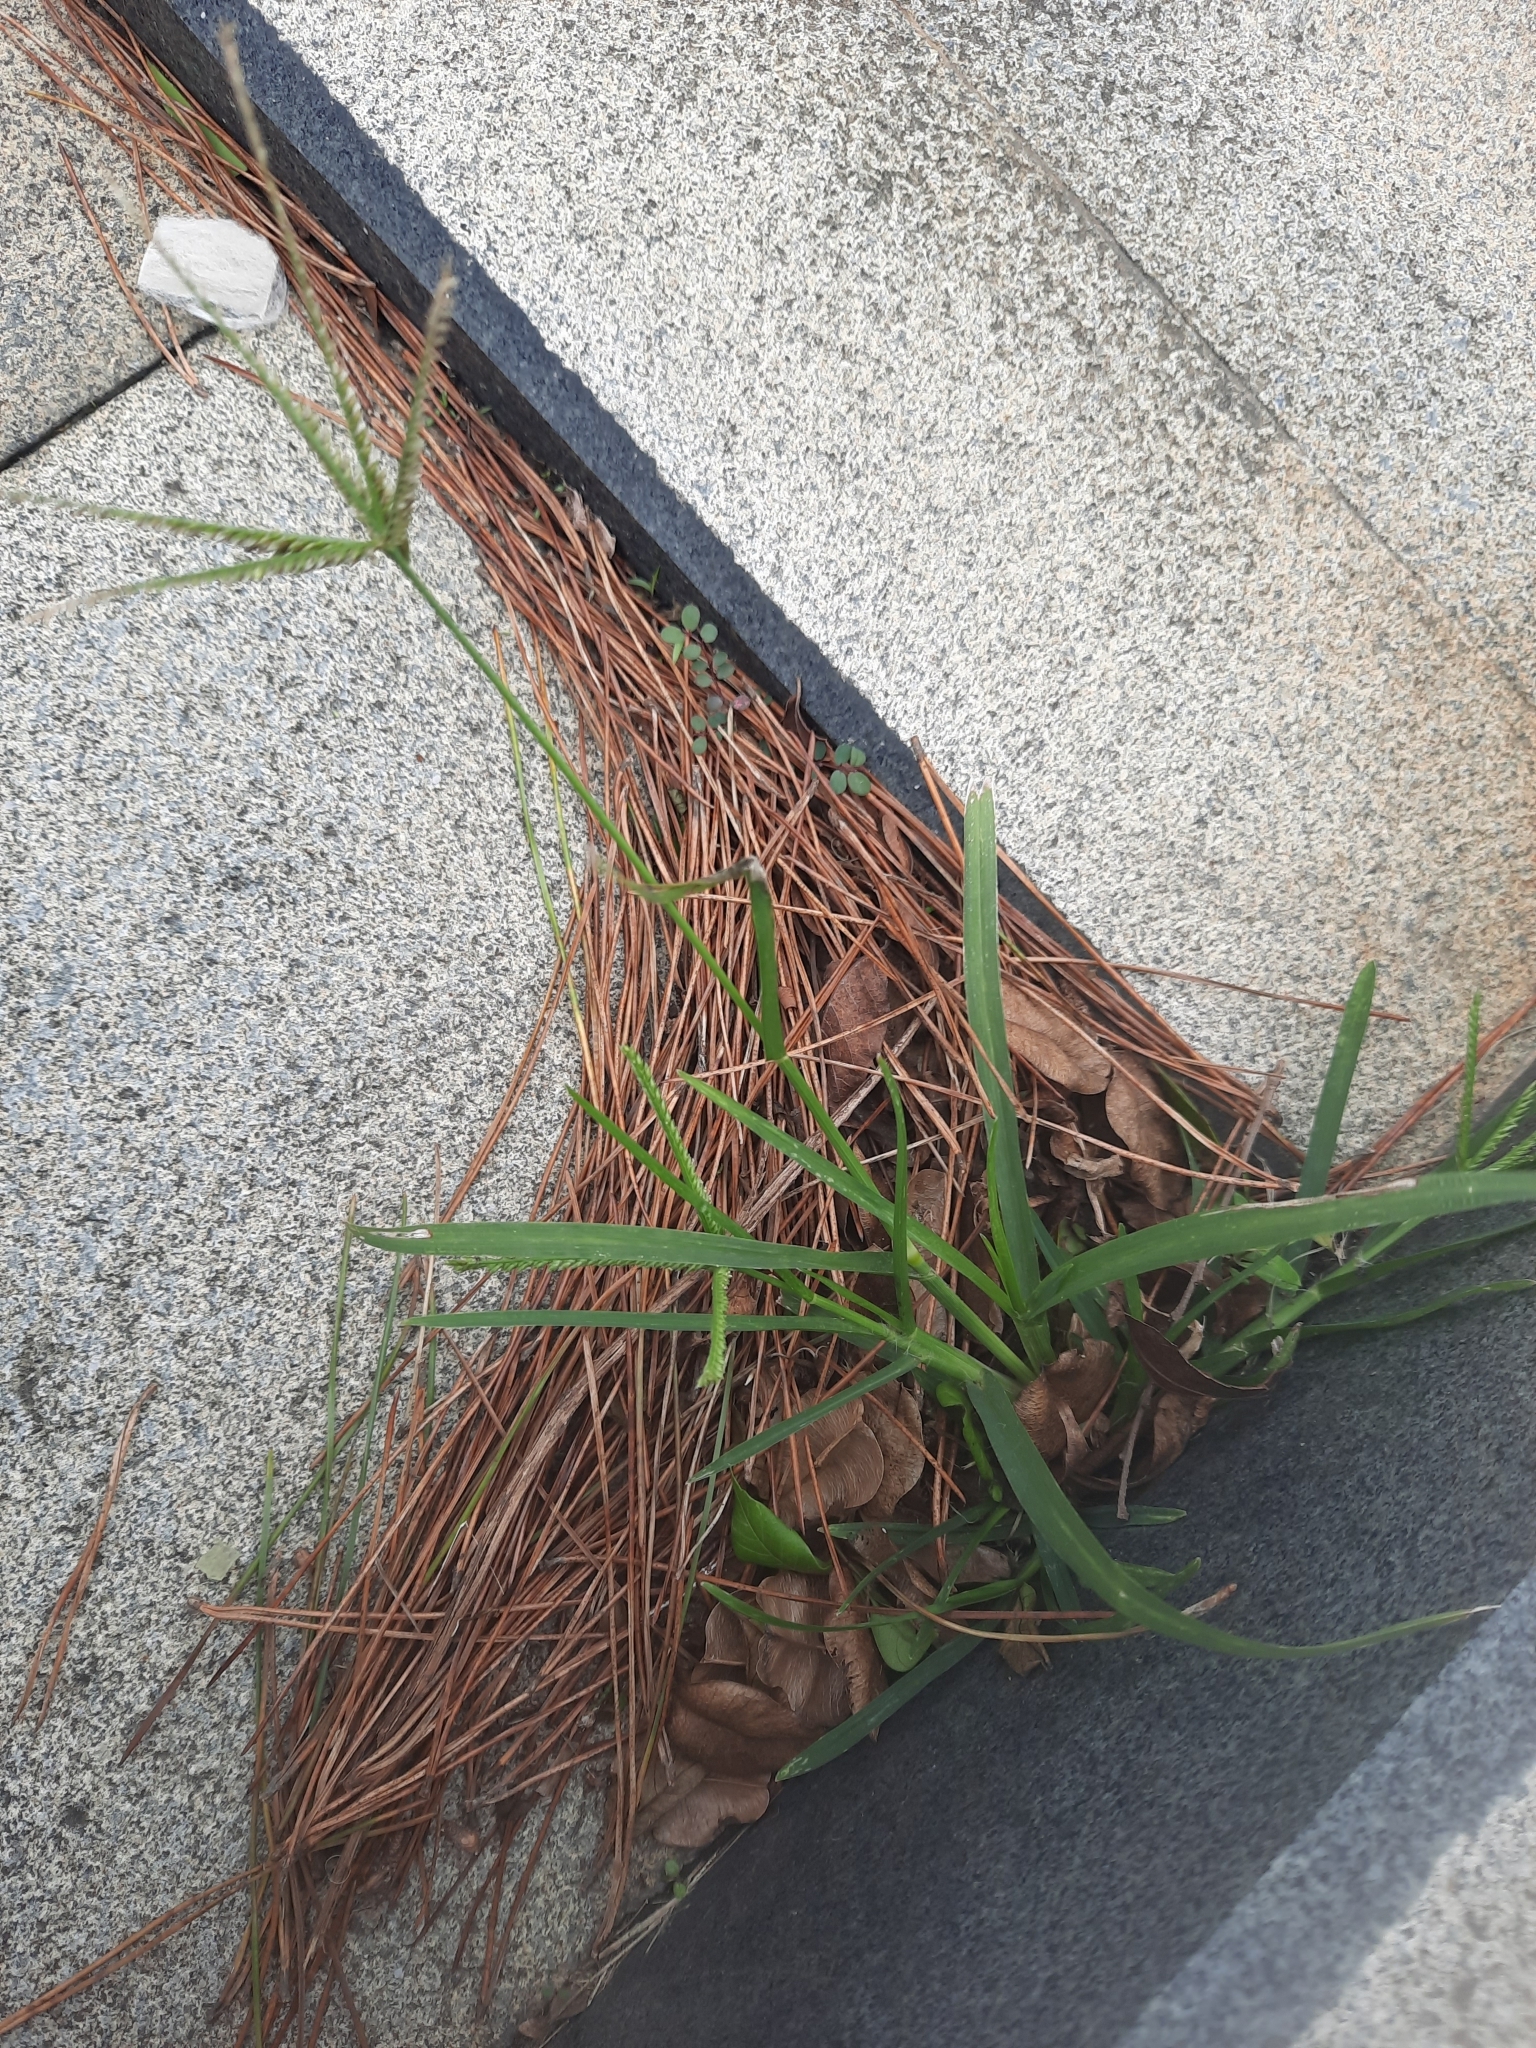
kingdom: Plantae
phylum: Tracheophyta
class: Liliopsida
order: Poales
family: Poaceae
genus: Eleusine
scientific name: Eleusine indica
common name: Yard-grass
